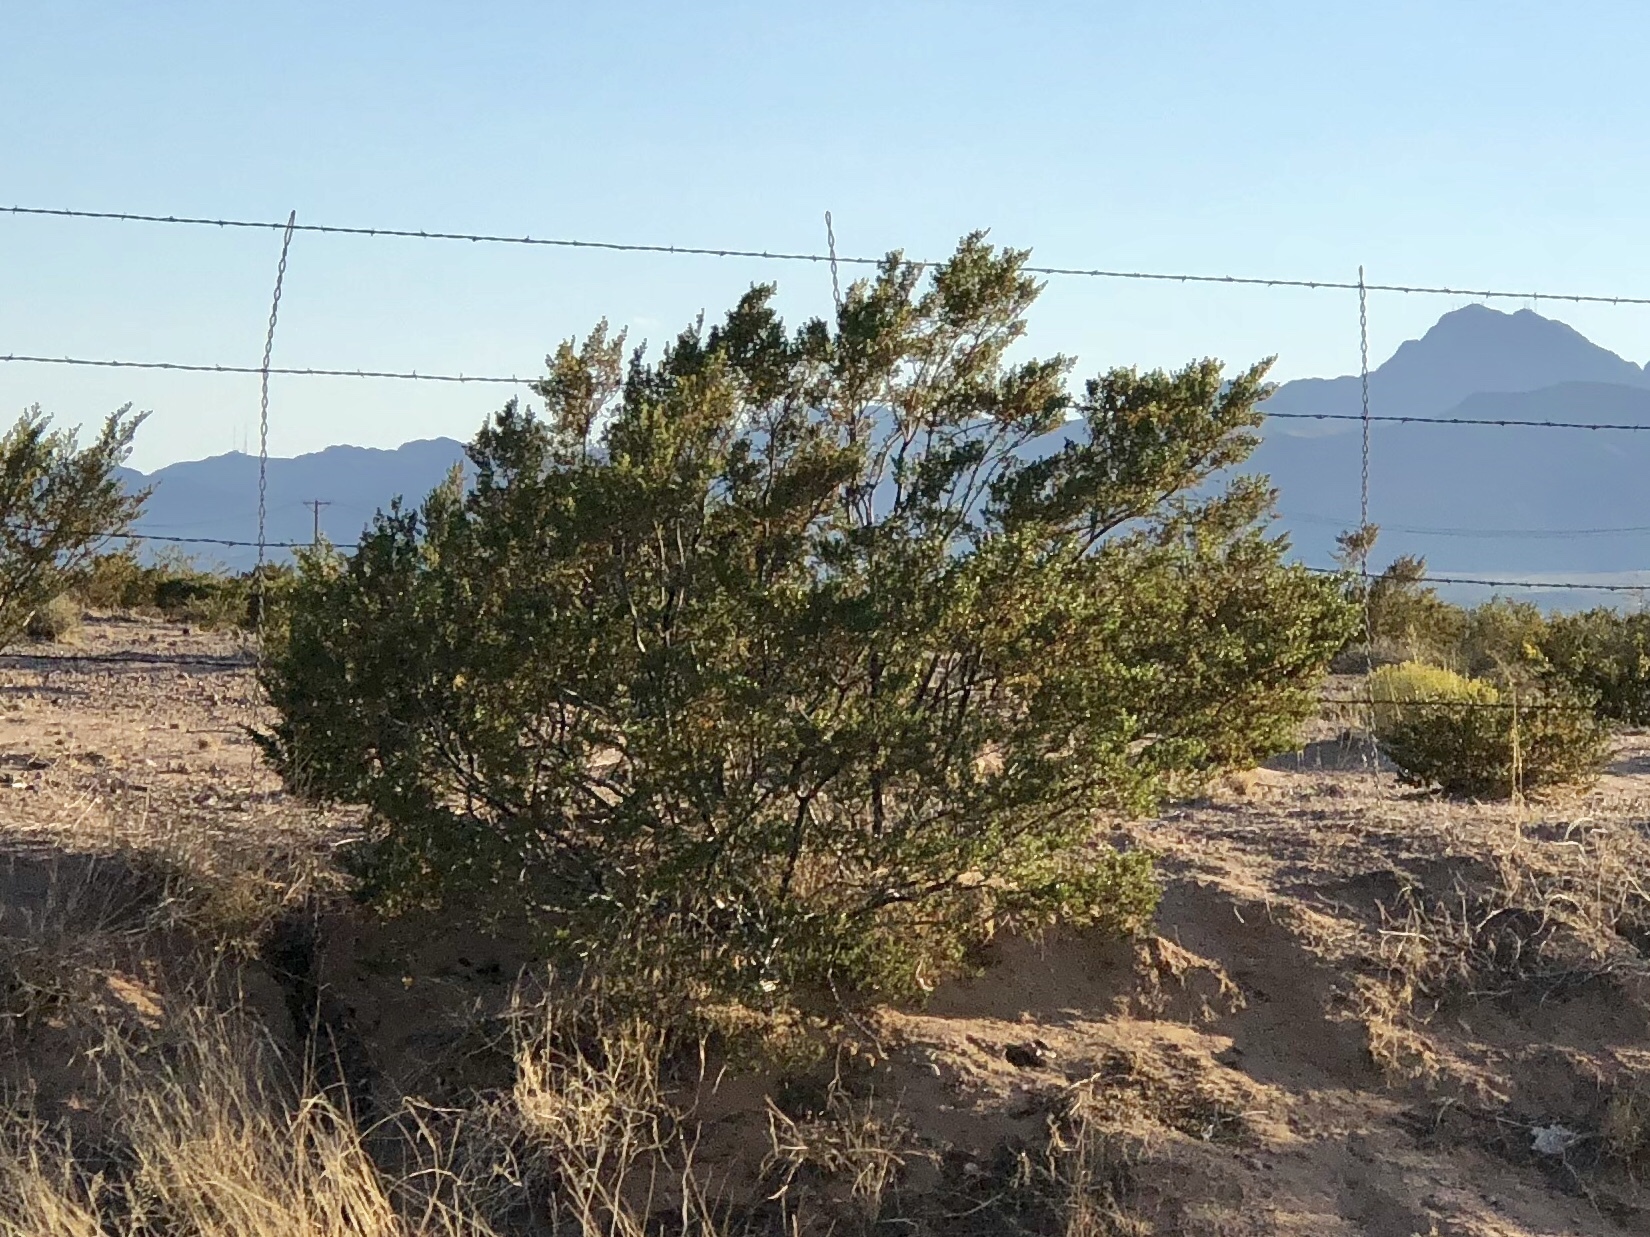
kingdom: Plantae
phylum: Tracheophyta
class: Magnoliopsida
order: Zygophyllales
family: Zygophyllaceae
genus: Larrea
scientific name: Larrea tridentata
